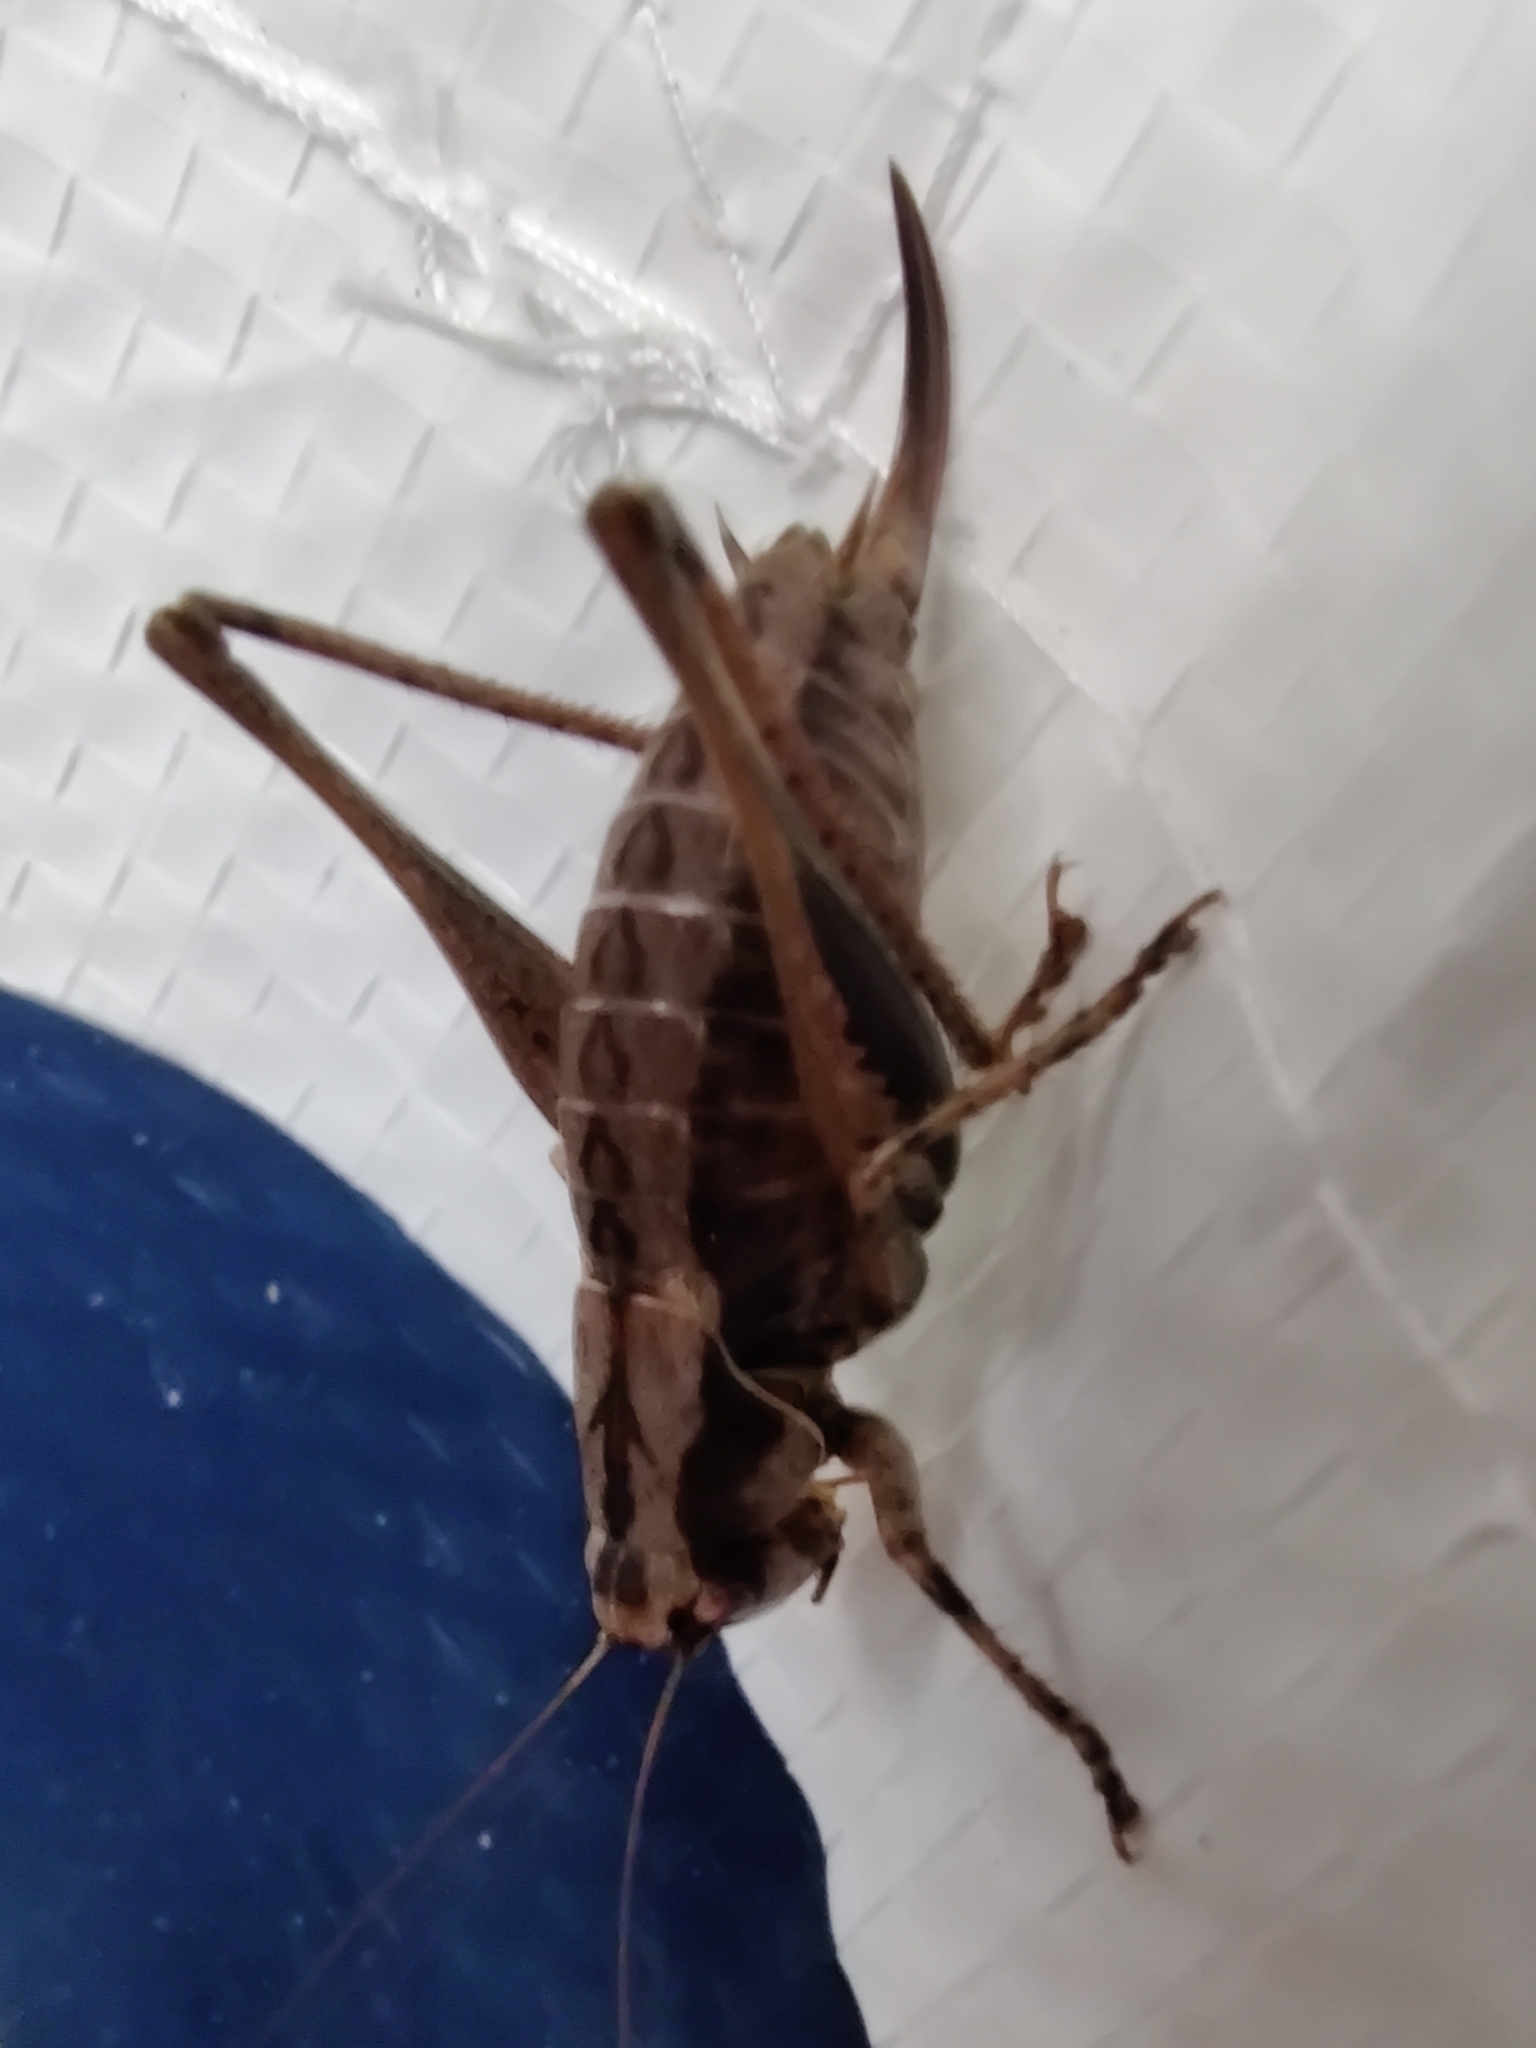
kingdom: Animalia
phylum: Arthropoda
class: Insecta
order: Orthoptera
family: Tettigoniidae
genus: Pholidoptera
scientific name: Pholidoptera griseoaptera
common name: Dark bush-cricket
